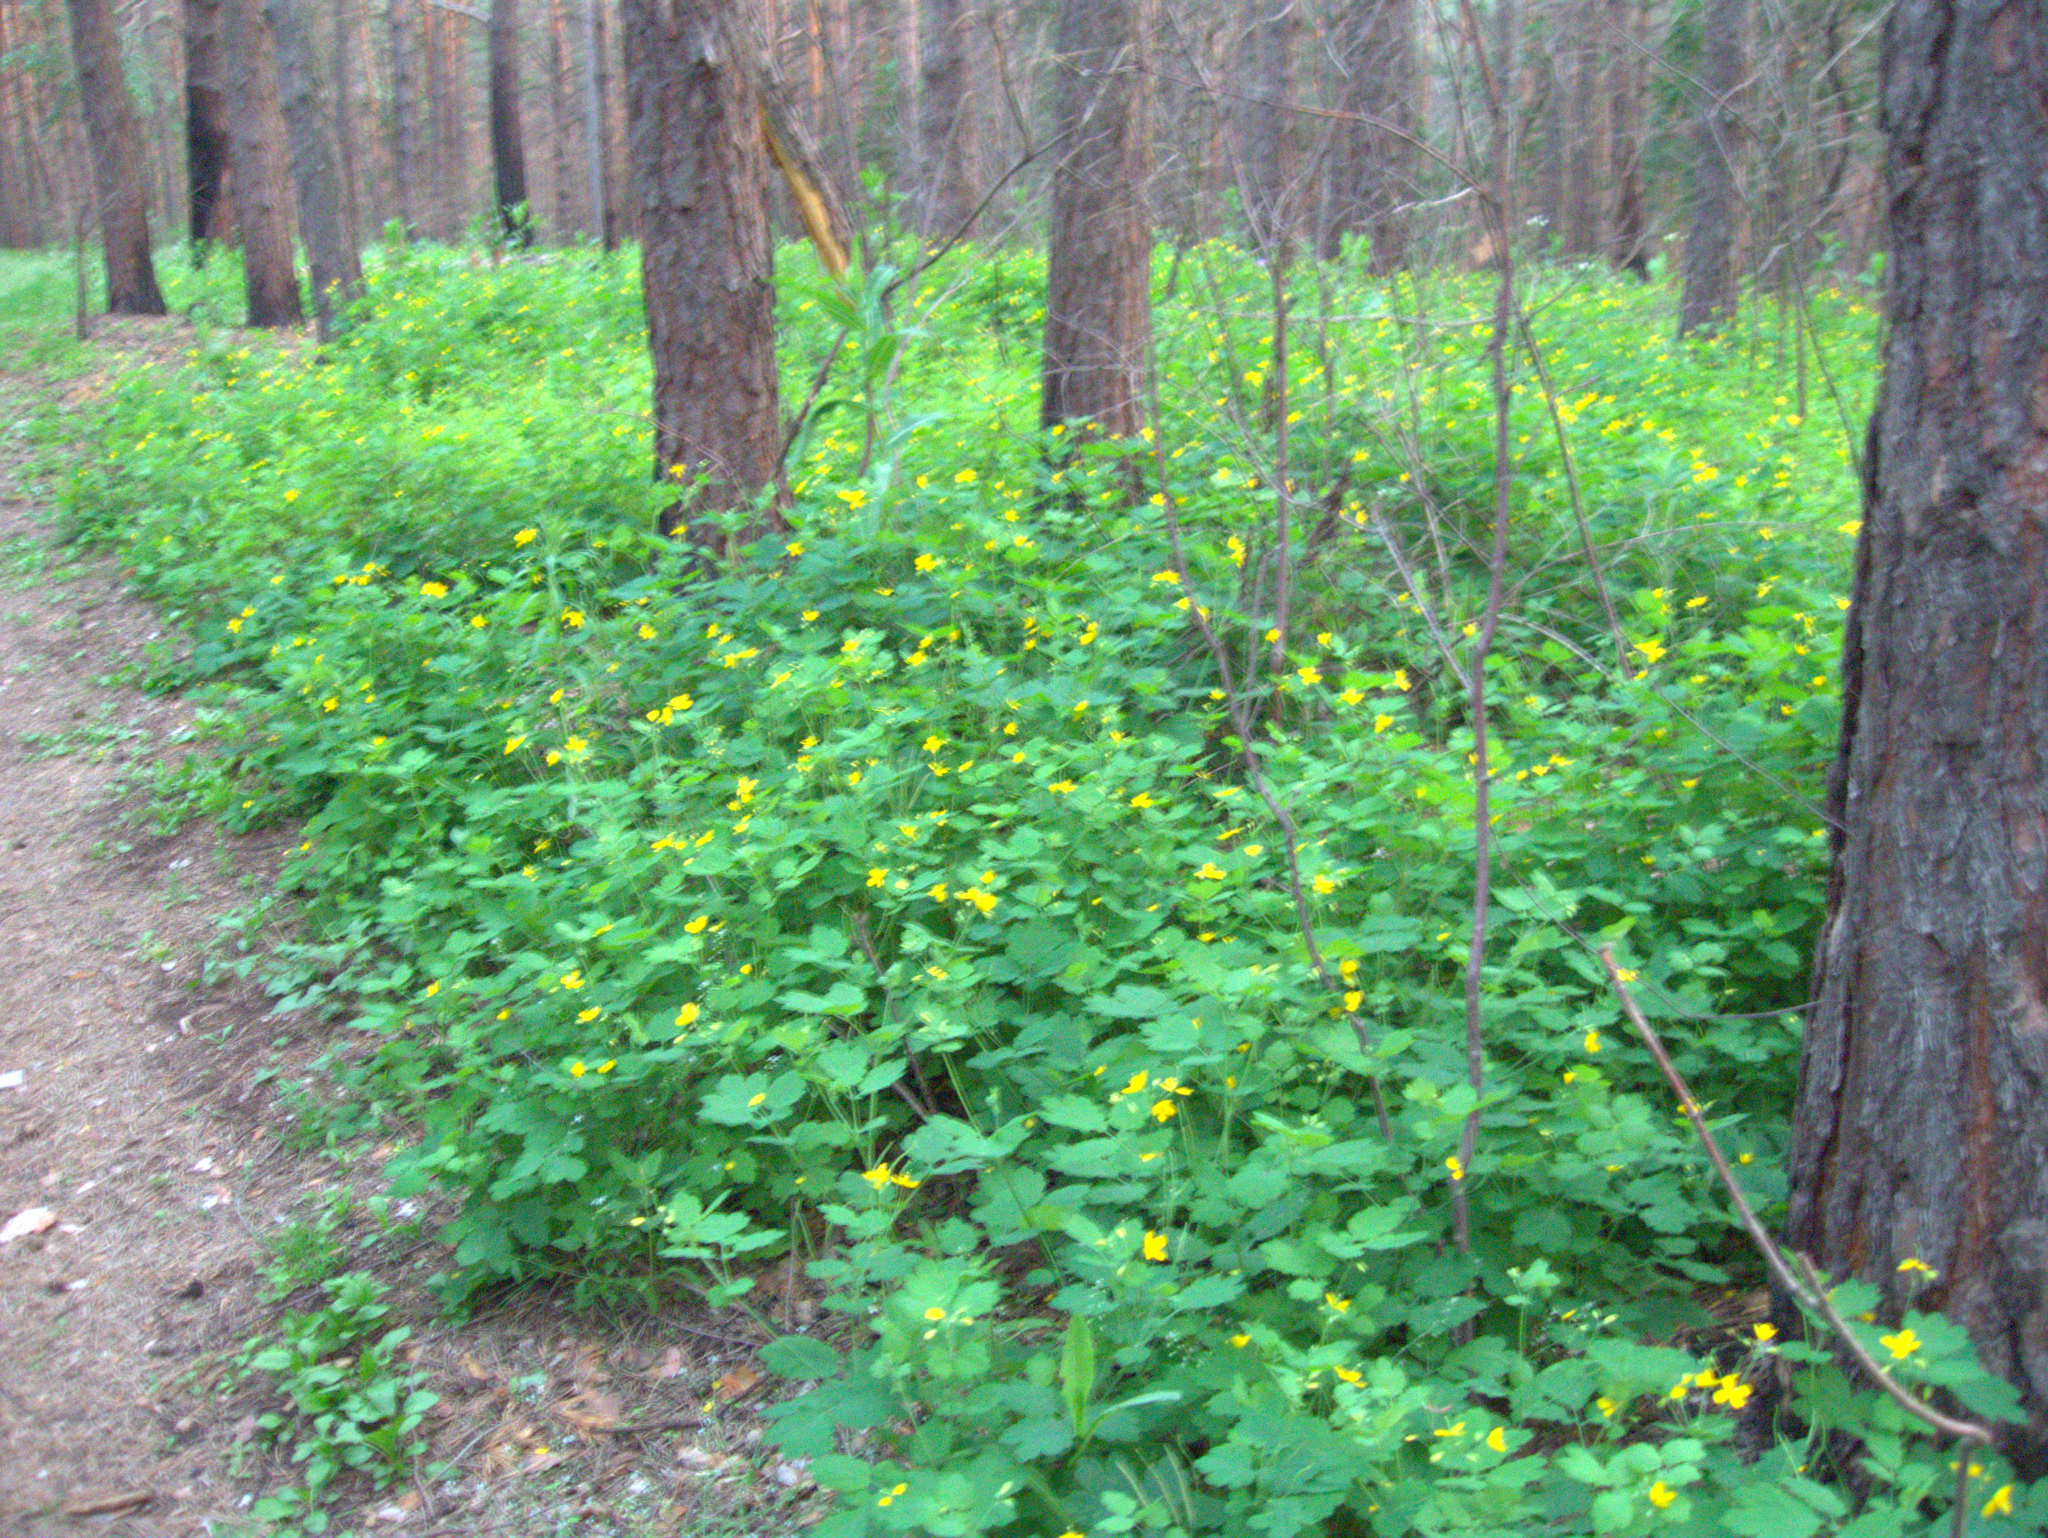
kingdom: Plantae
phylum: Tracheophyta
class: Magnoliopsida
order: Ranunculales
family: Papaveraceae
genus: Chelidonium
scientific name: Chelidonium majus
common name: Greater celandine
